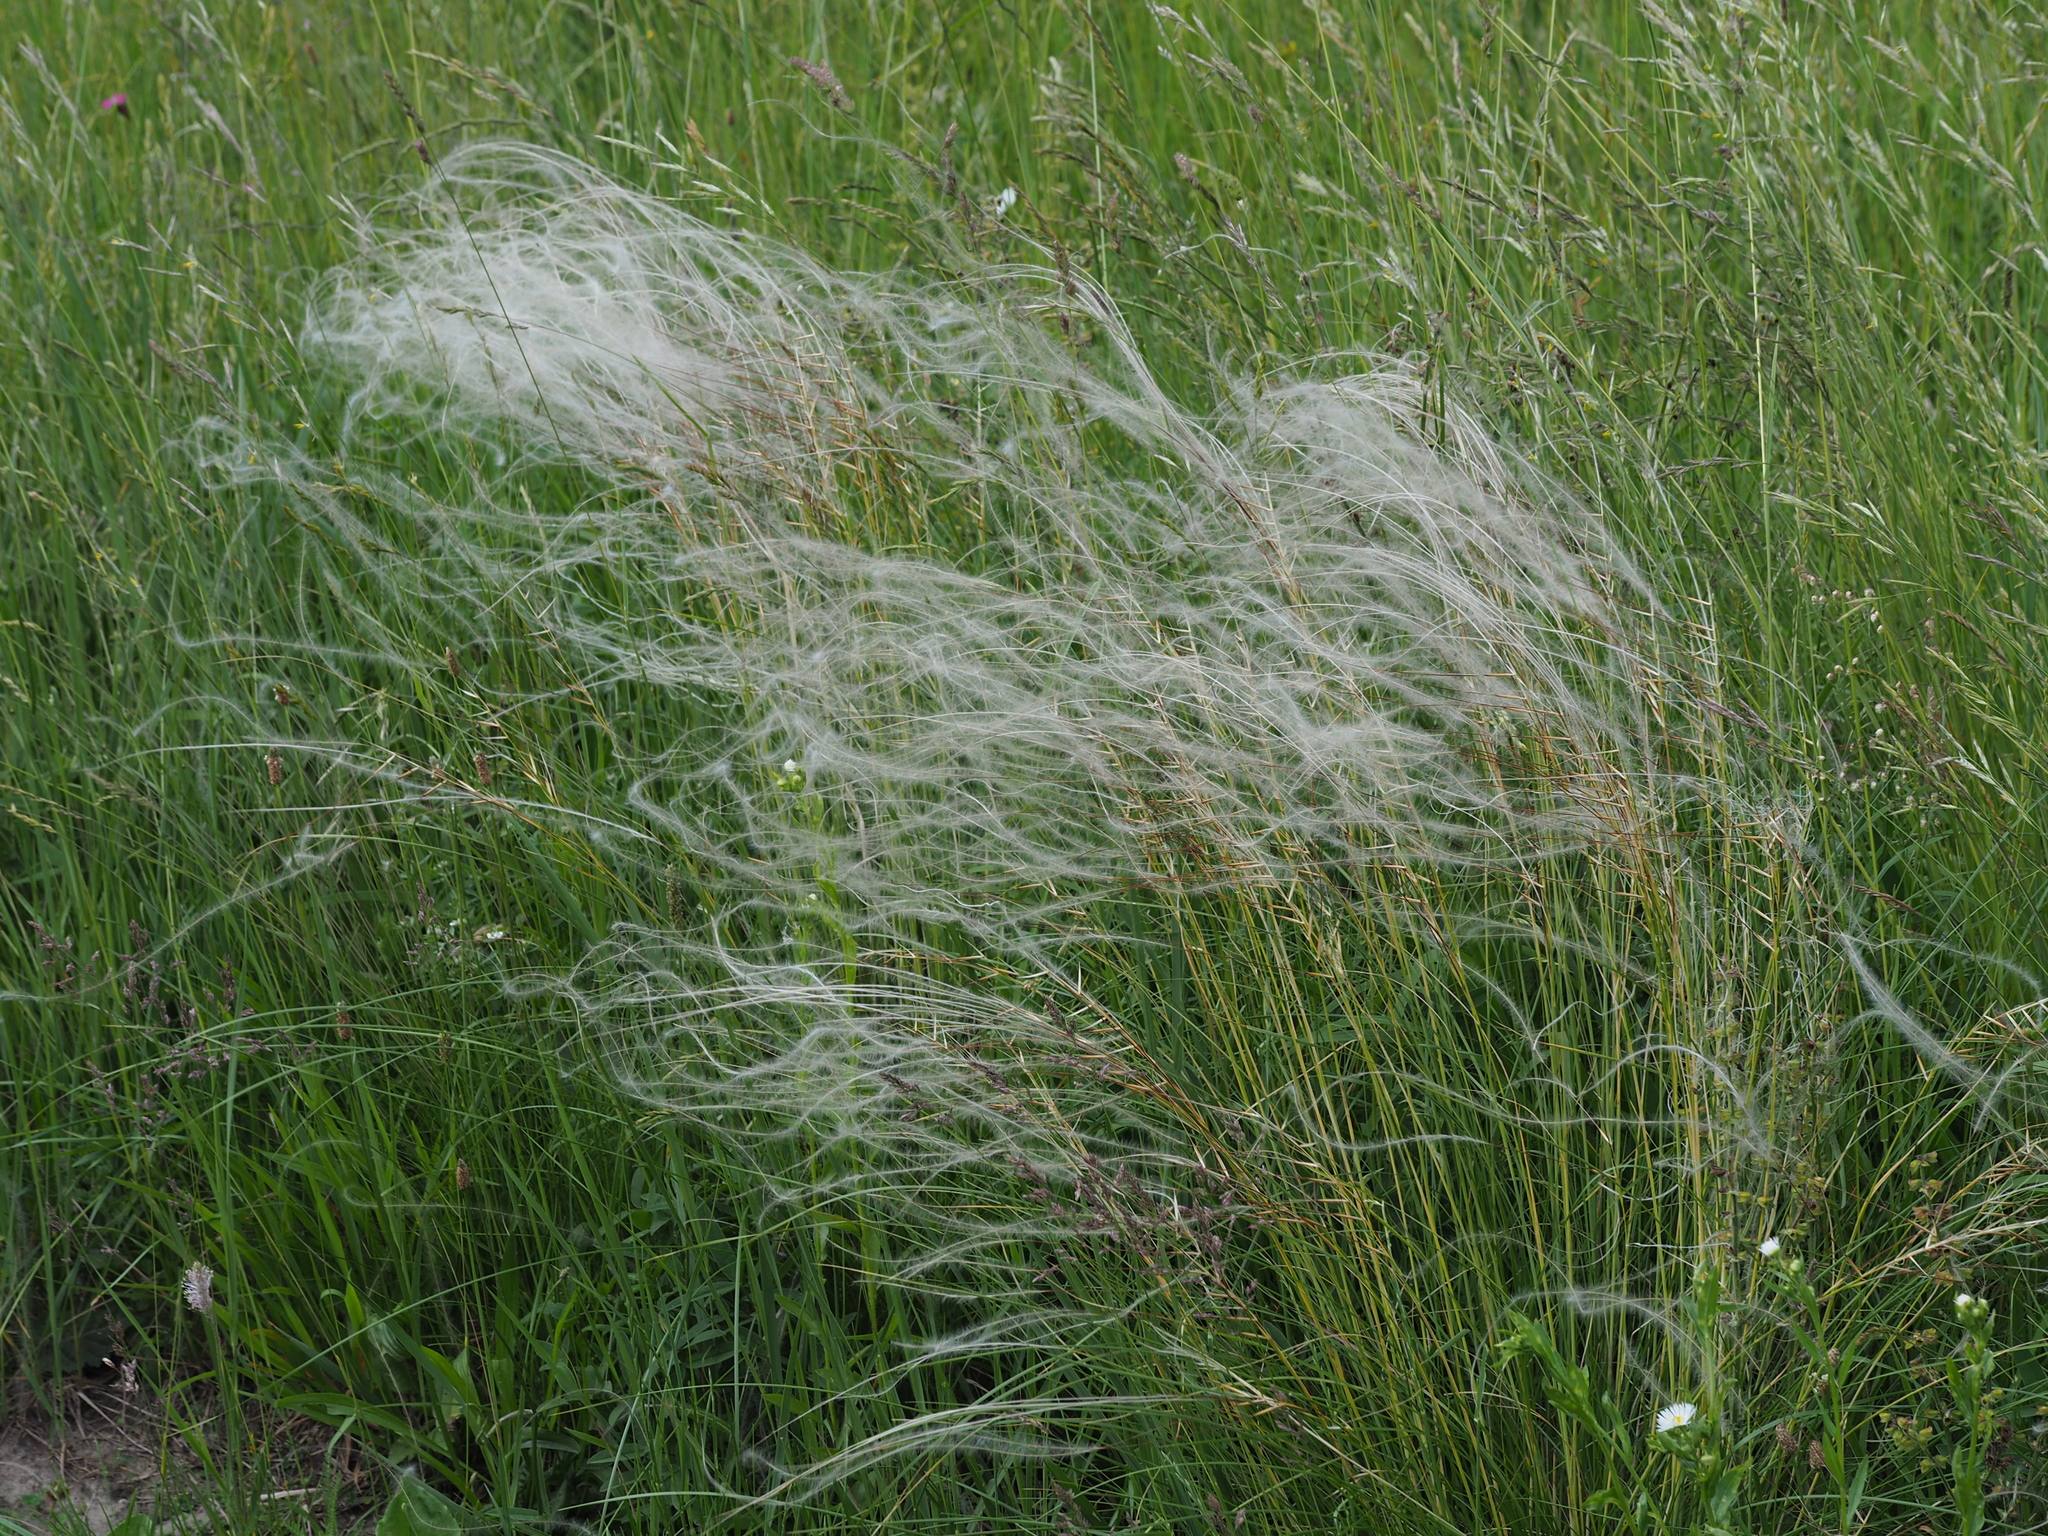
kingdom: Plantae
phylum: Tracheophyta
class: Liliopsida
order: Poales
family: Poaceae
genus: Stipa
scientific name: Stipa pennata
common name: European feather grass
